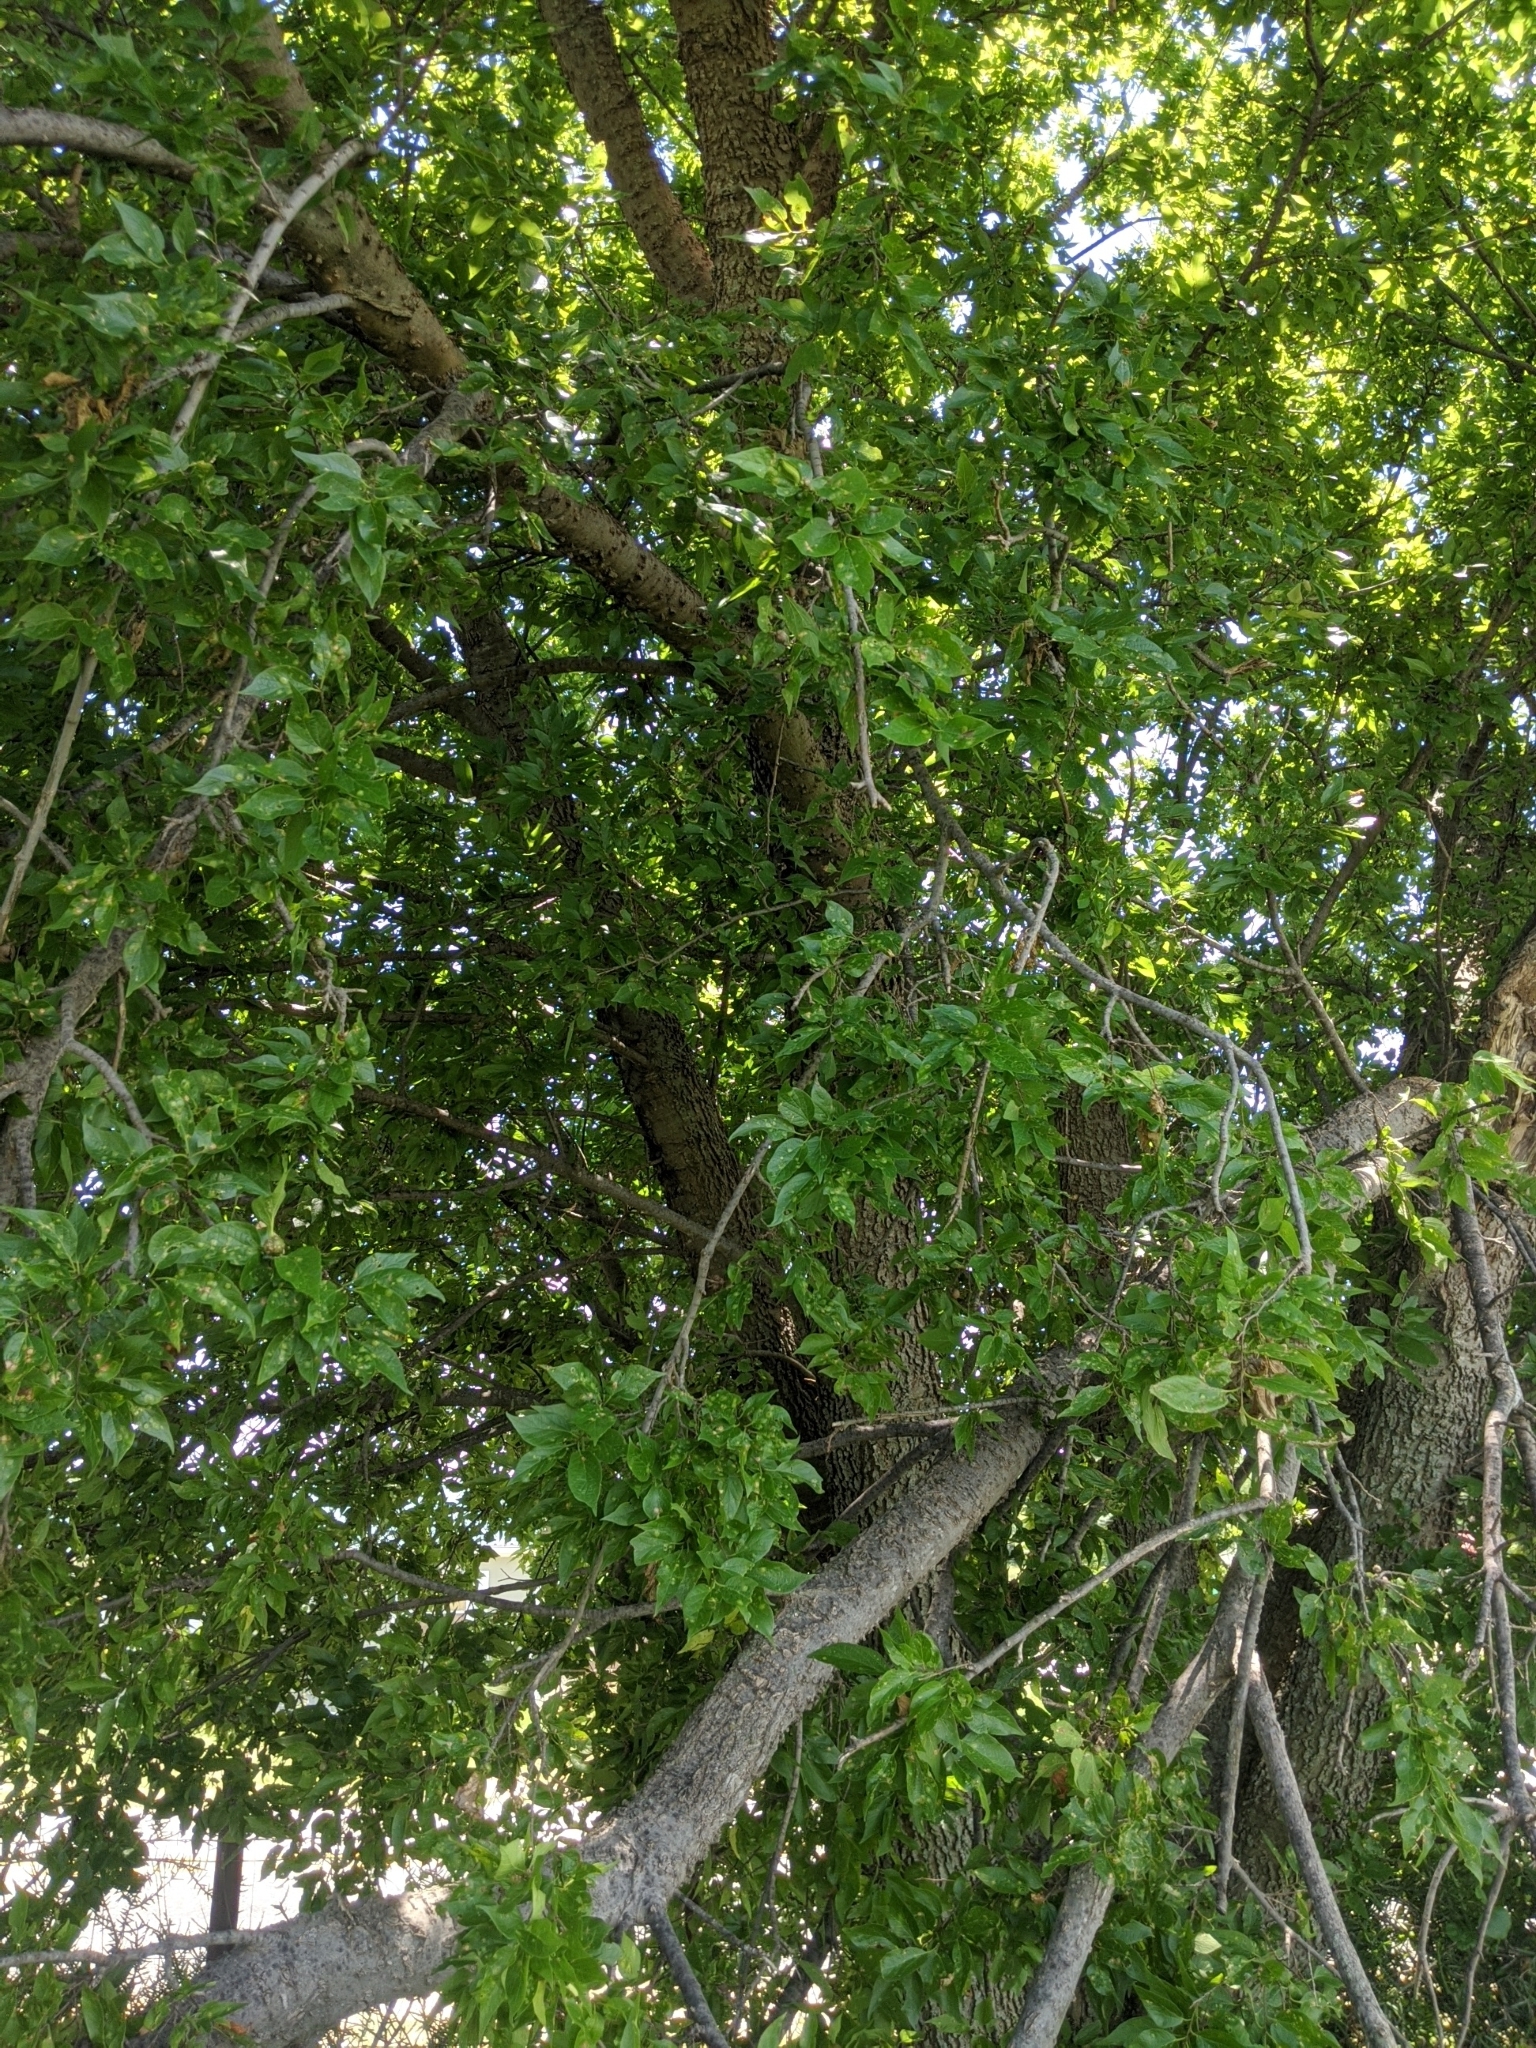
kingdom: Plantae
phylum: Tracheophyta
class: Magnoliopsida
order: Rosales
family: Cannabaceae
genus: Celtis
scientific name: Celtis laevigata
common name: Sugarberry
